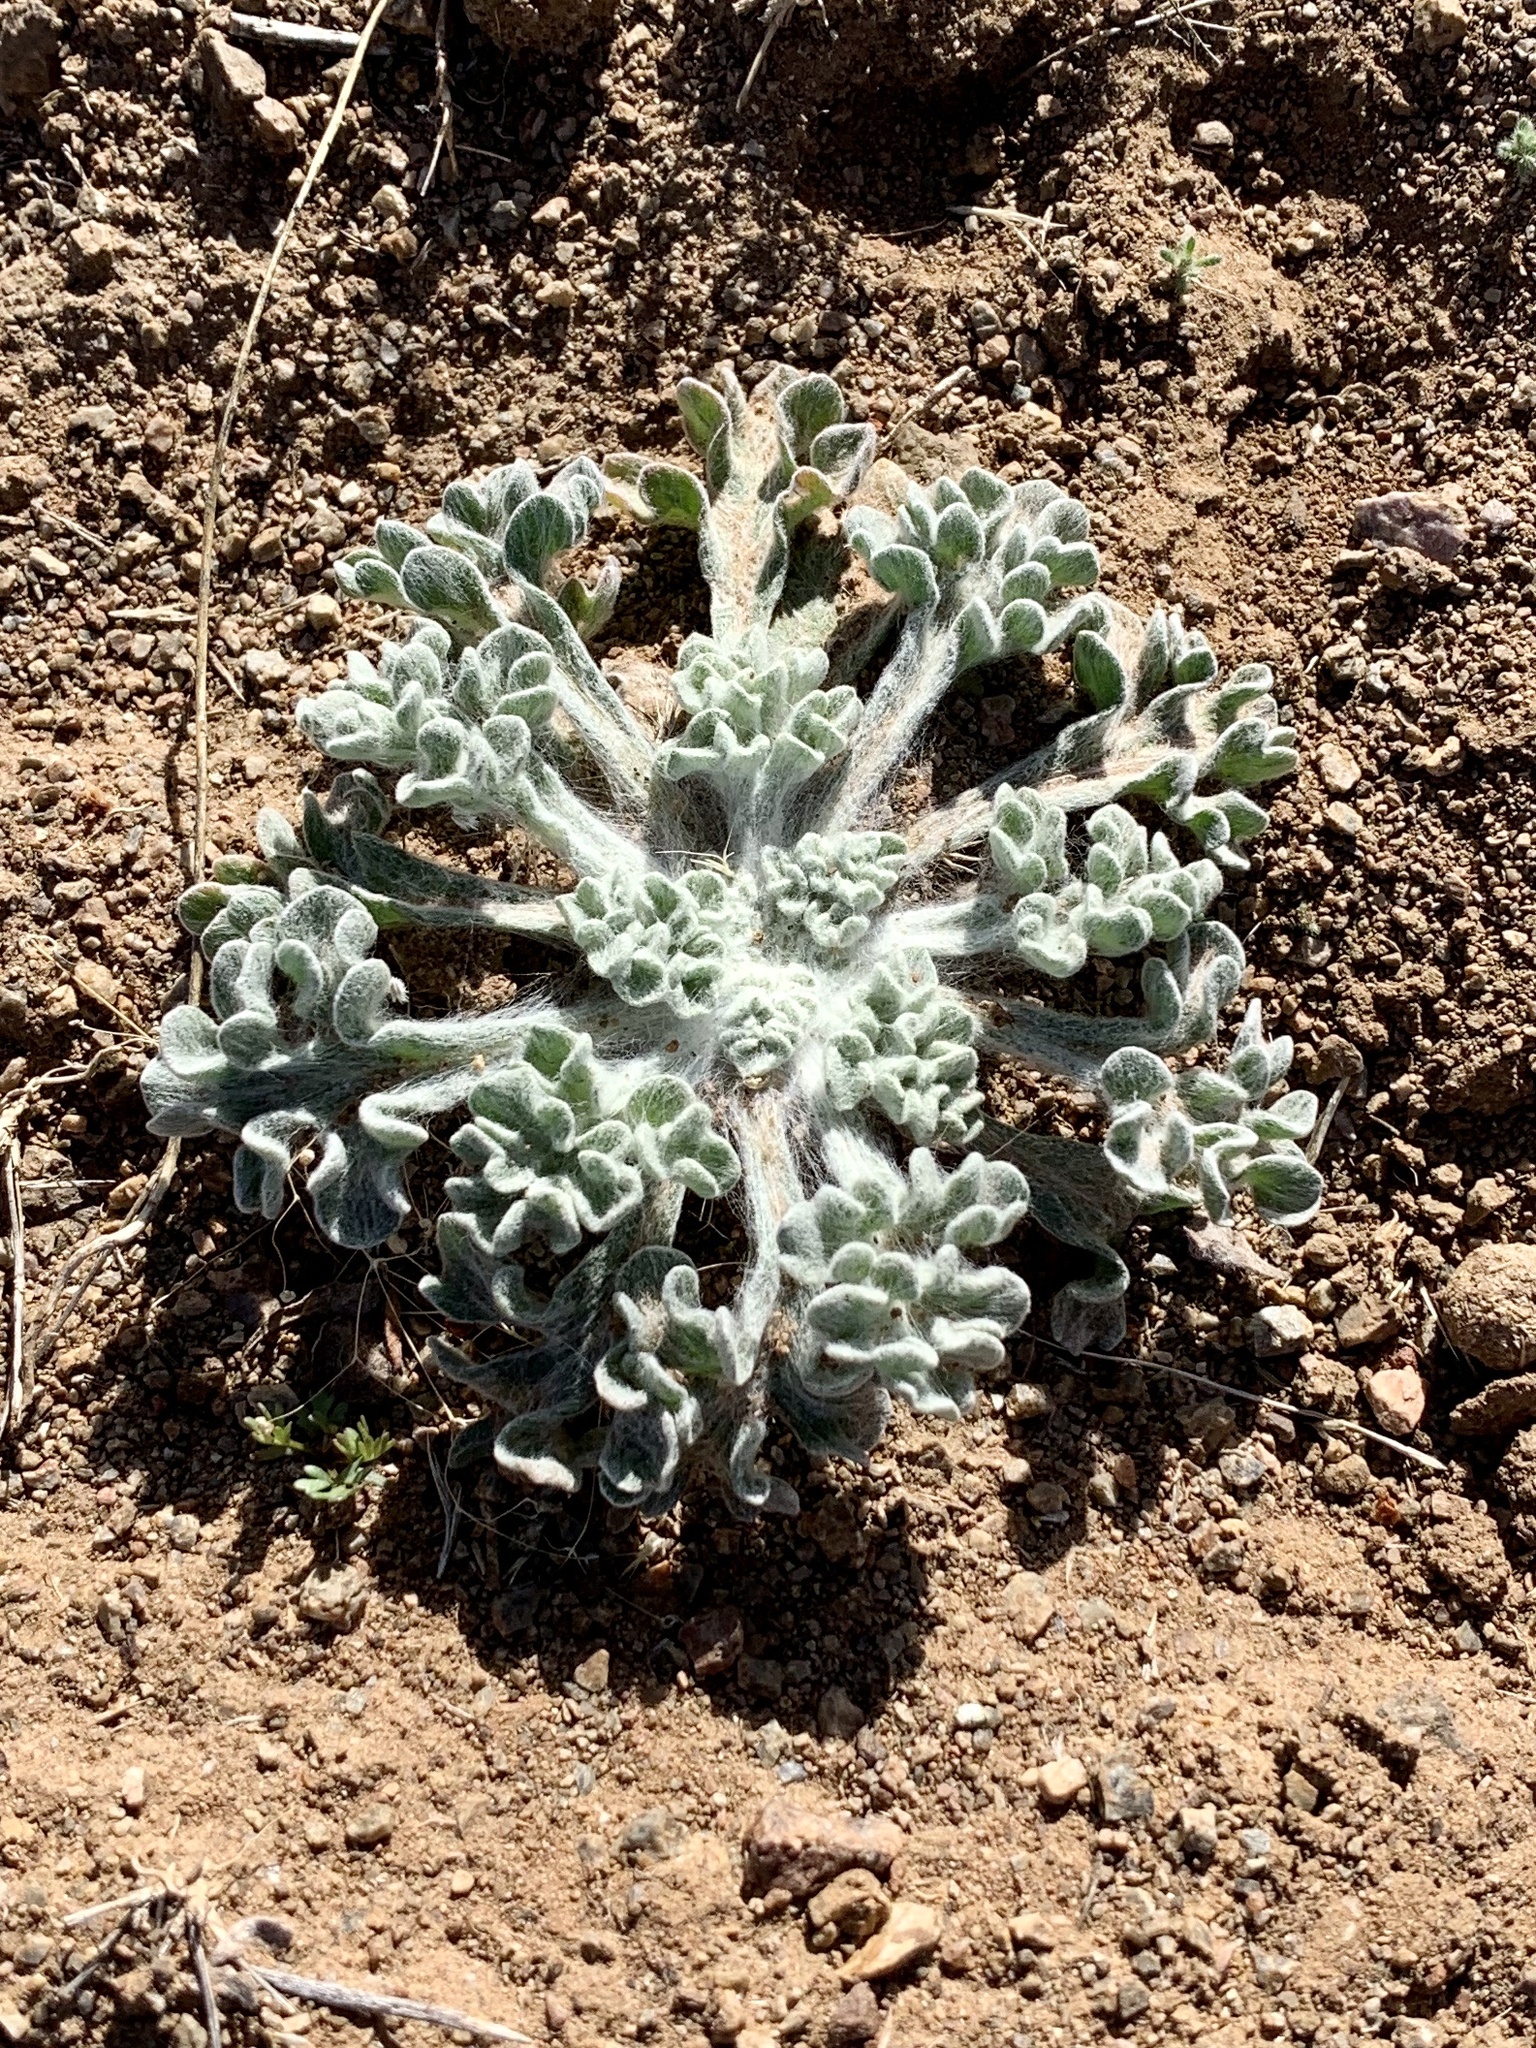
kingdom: Plantae
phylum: Tracheophyta
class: Magnoliopsida
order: Asterales
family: Asteraceae
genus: Baileya
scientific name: Baileya multiradiata
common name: Desert-marigold
